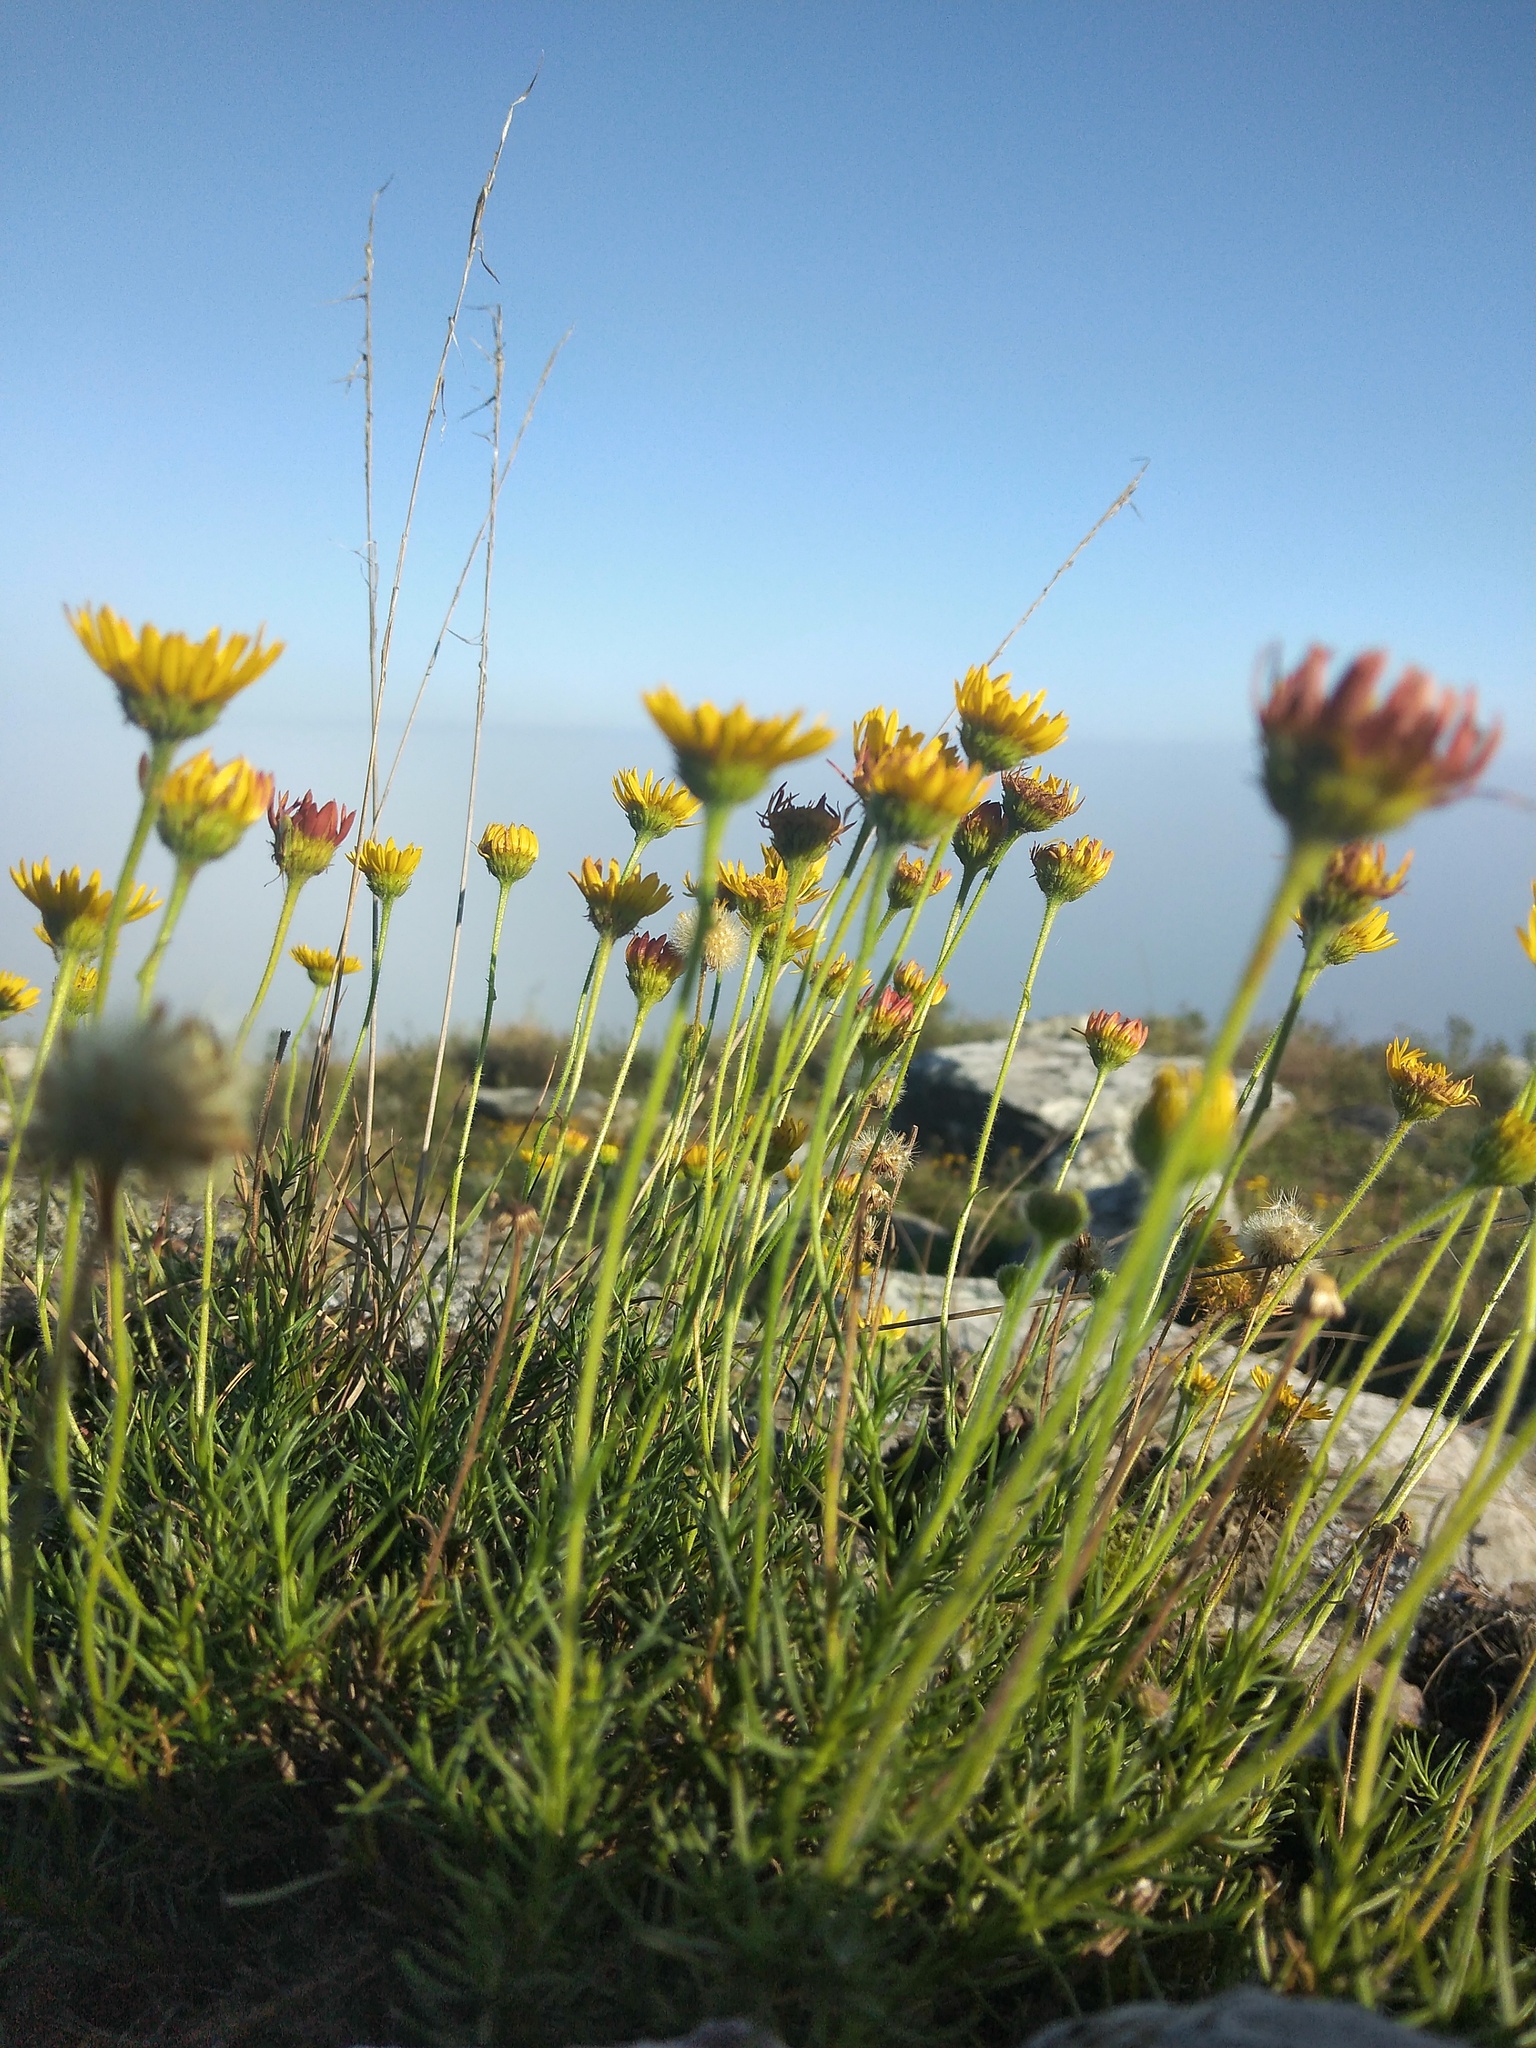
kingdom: Plantae
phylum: Tracheophyta
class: Magnoliopsida
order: Asterales
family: Asteraceae
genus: Neja
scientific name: Neja pinifolia
